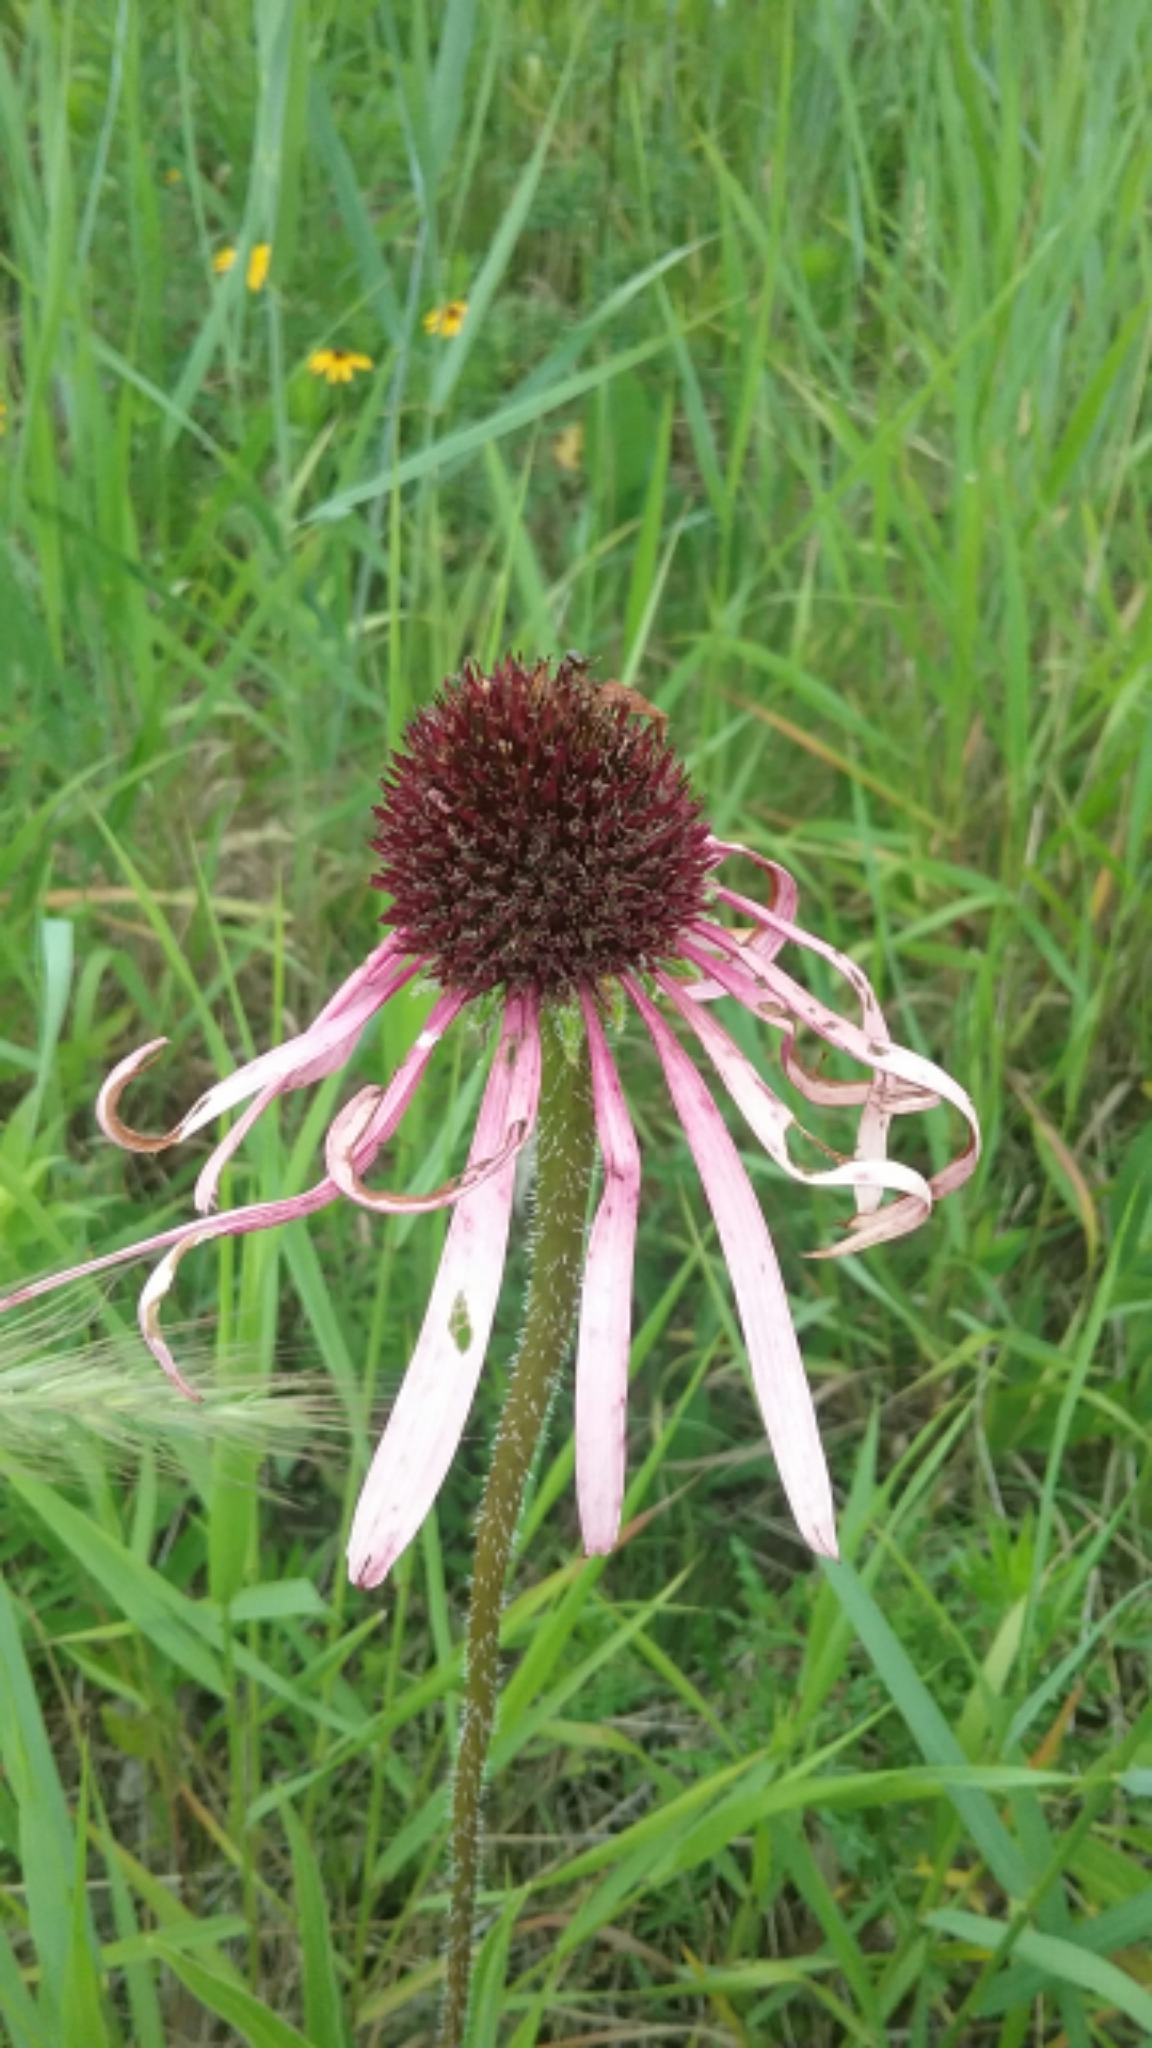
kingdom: Plantae
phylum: Tracheophyta
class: Magnoliopsida
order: Asterales
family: Asteraceae
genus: Echinacea
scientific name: Echinacea pallida
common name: Pale echinacea
